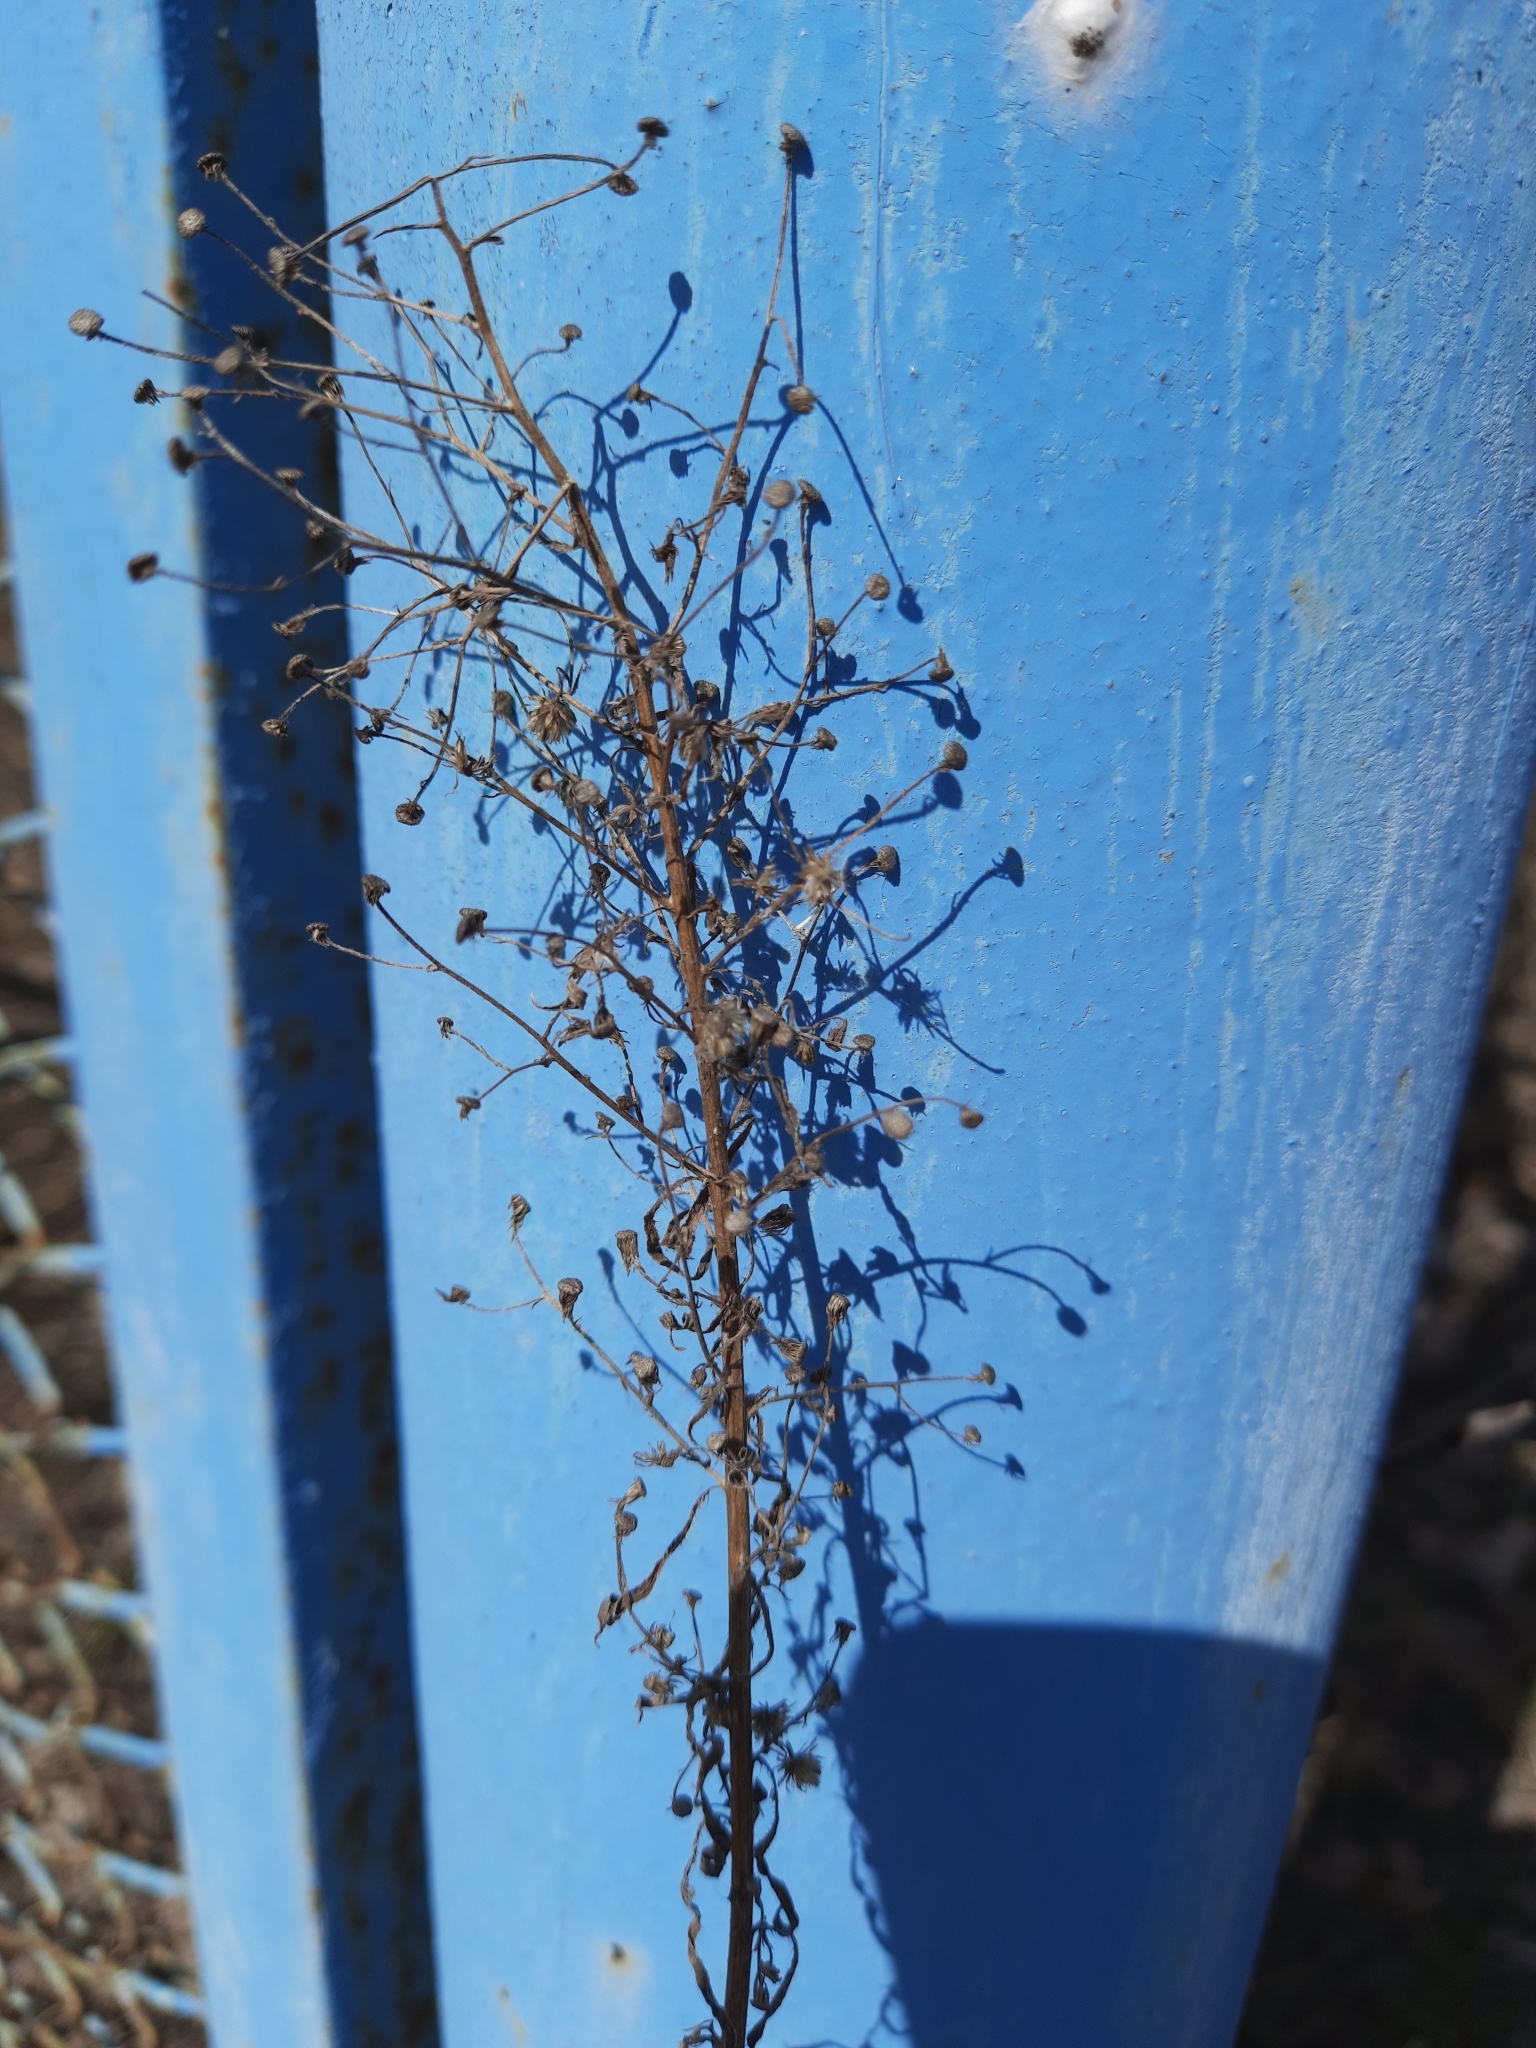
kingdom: Plantae
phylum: Tracheophyta
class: Magnoliopsida
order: Lamiales
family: Plantaginaceae
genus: Veronica
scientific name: Veronica longifolia
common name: Garden speedwell
